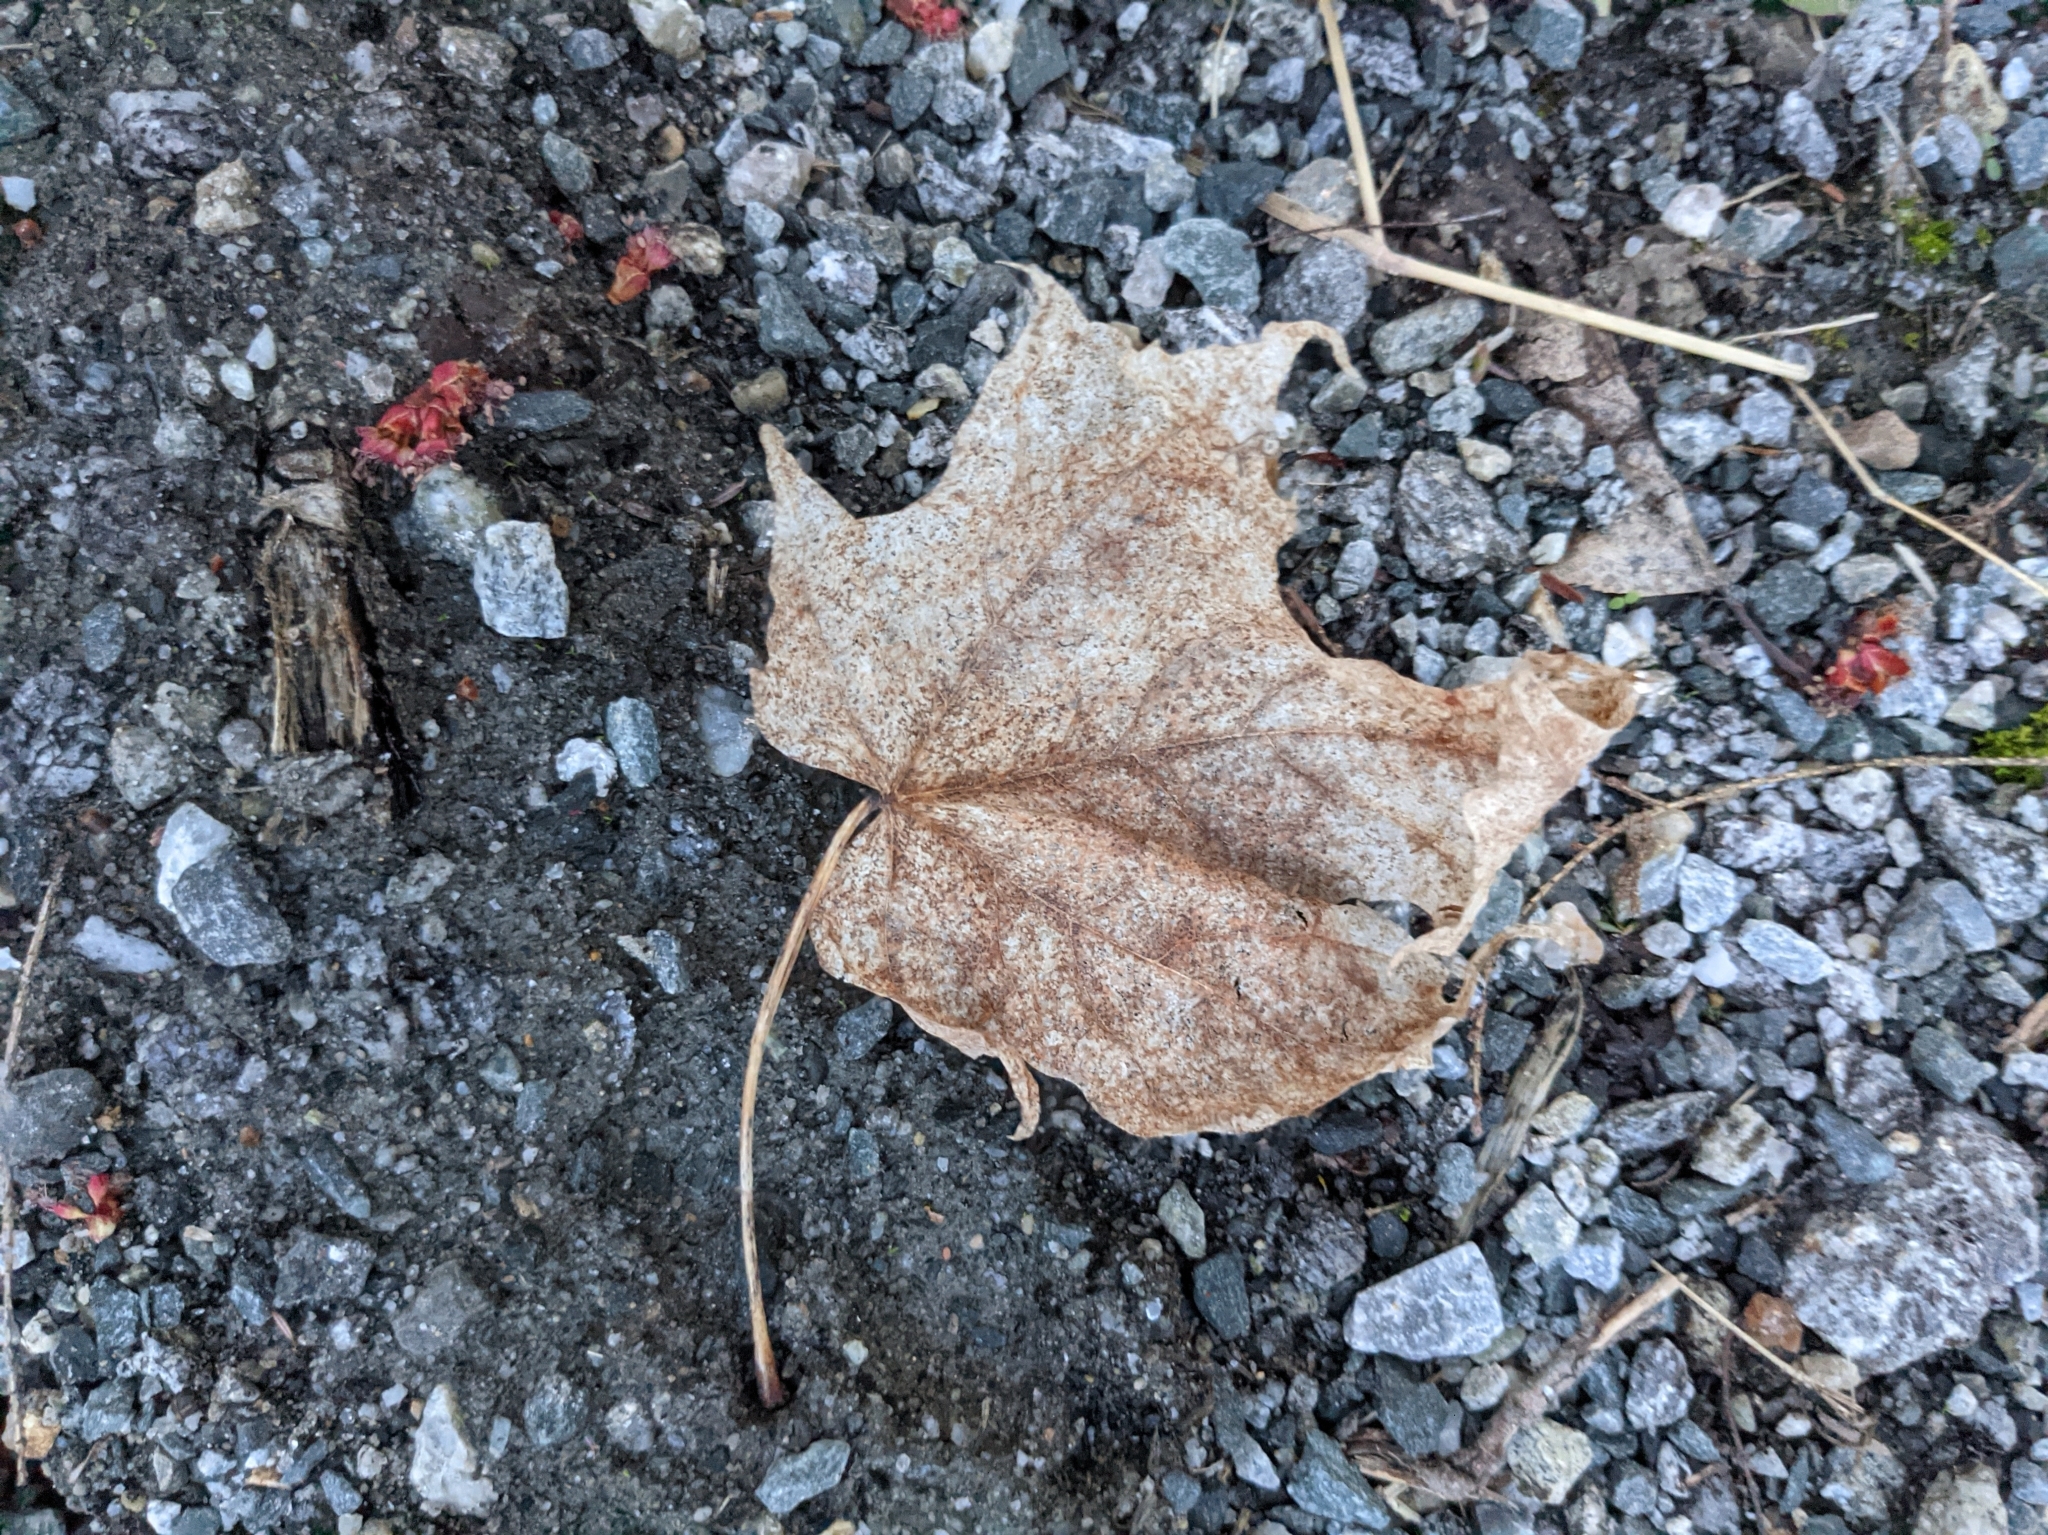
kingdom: Plantae
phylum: Tracheophyta
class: Magnoliopsida
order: Sapindales
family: Sapindaceae
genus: Acer
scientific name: Acer saccharum
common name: Sugar maple
